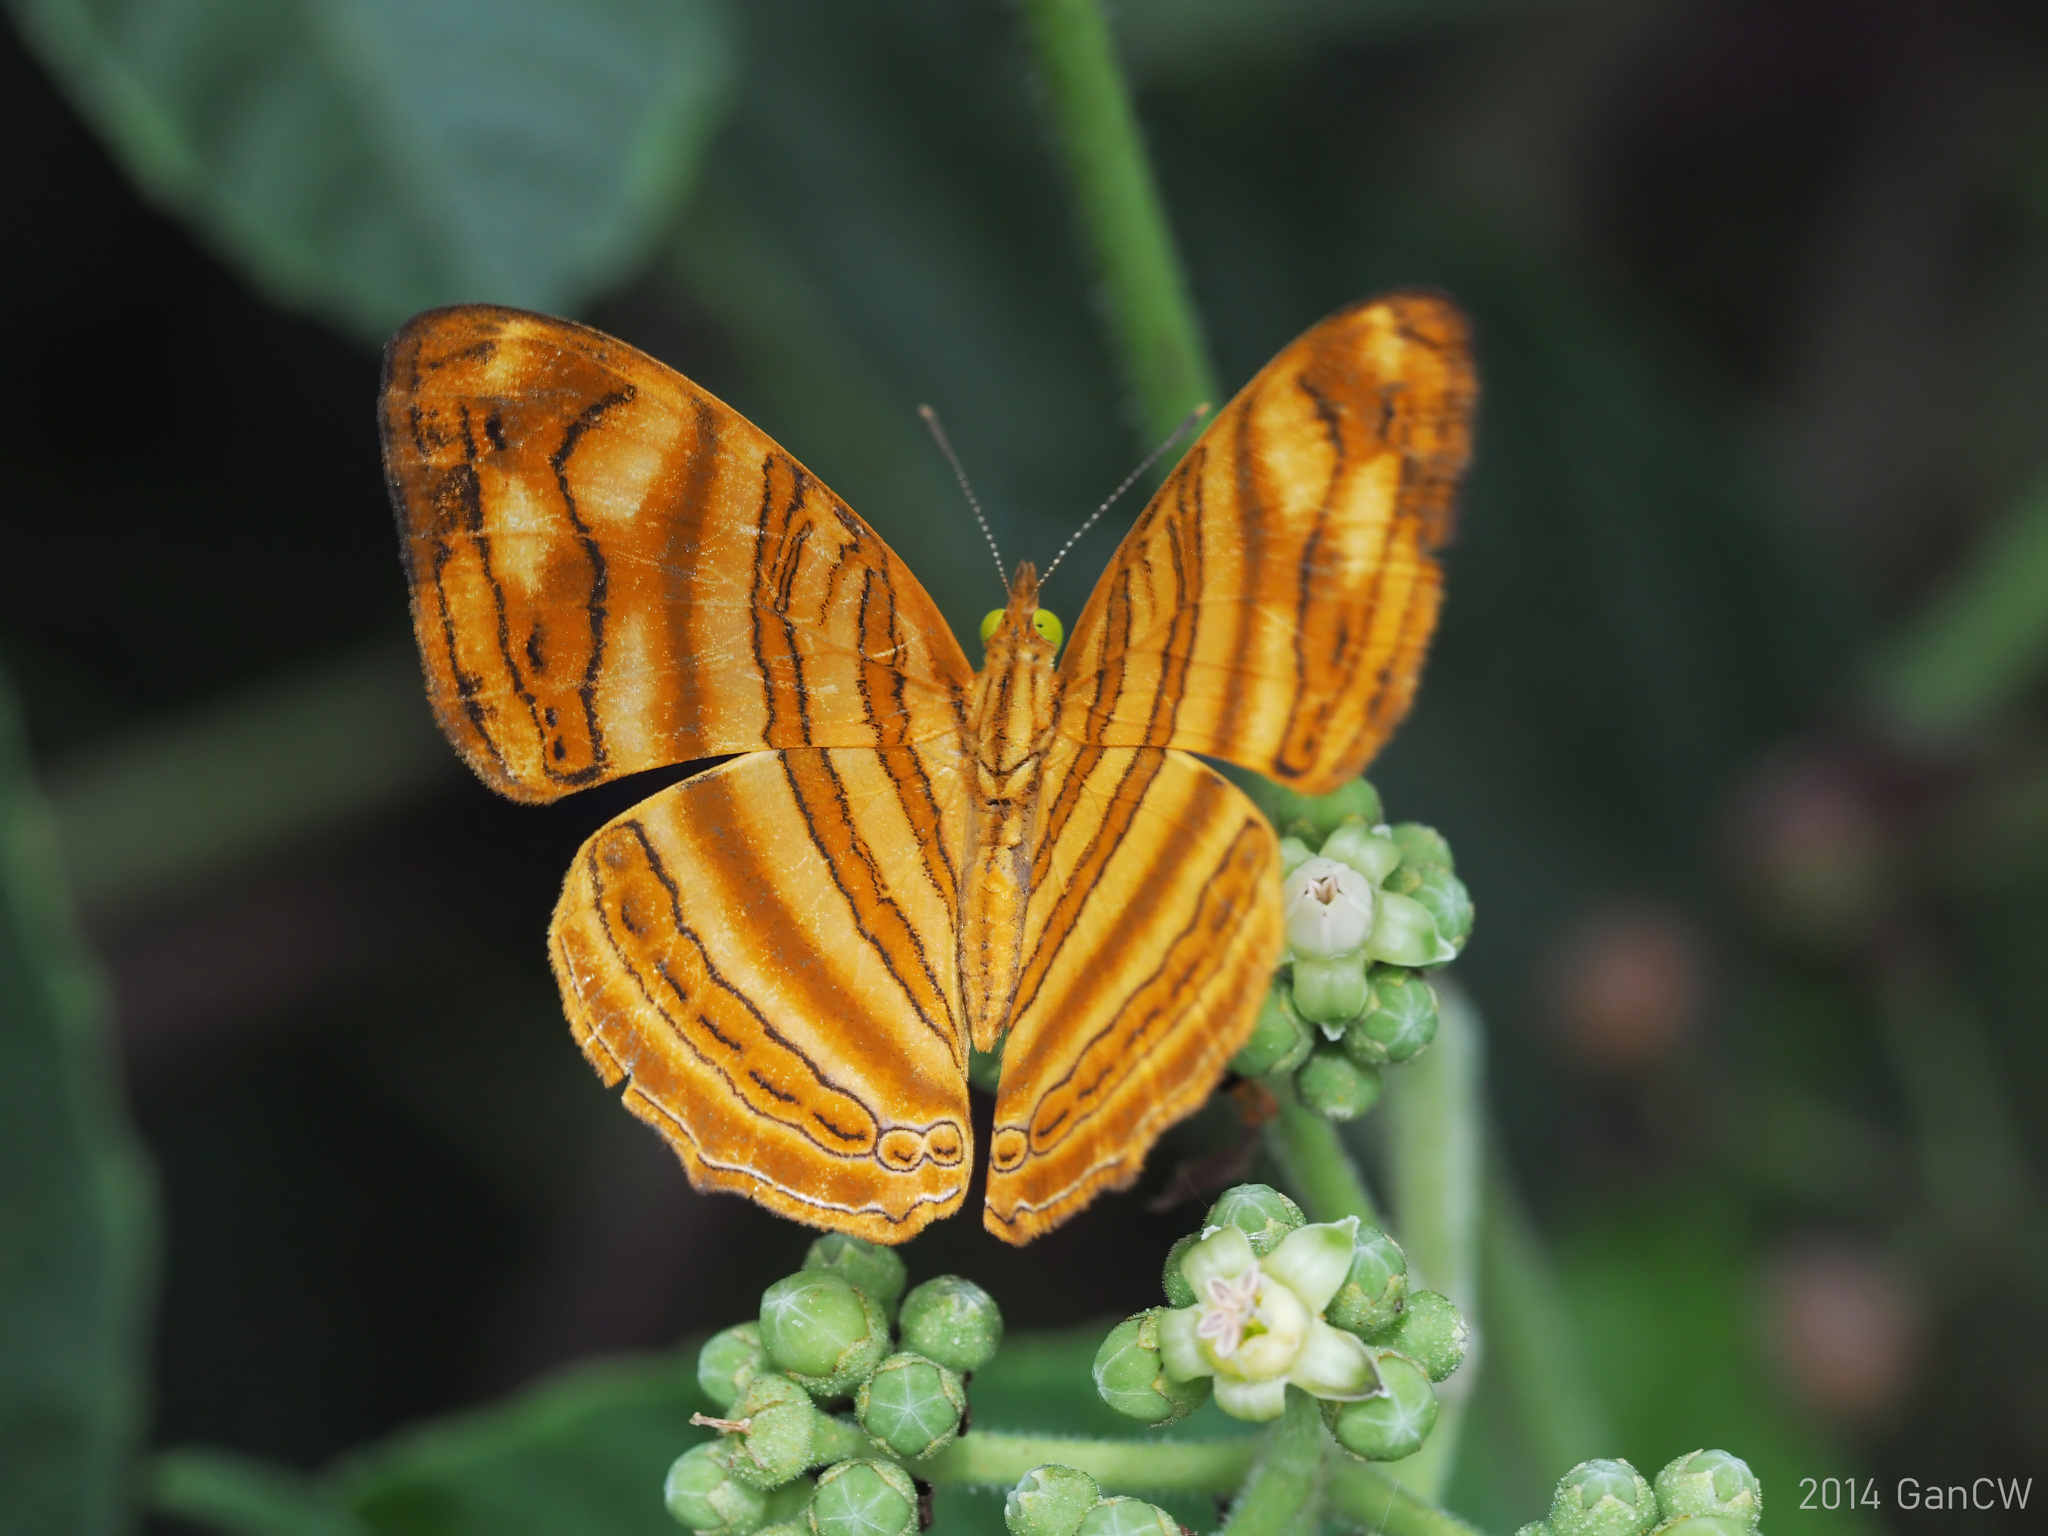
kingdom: Animalia
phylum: Arthropoda
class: Insecta
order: Lepidoptera
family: Nymphalidae
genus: Chersonesia
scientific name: Chersonesia rahria
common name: Wavy maplet
